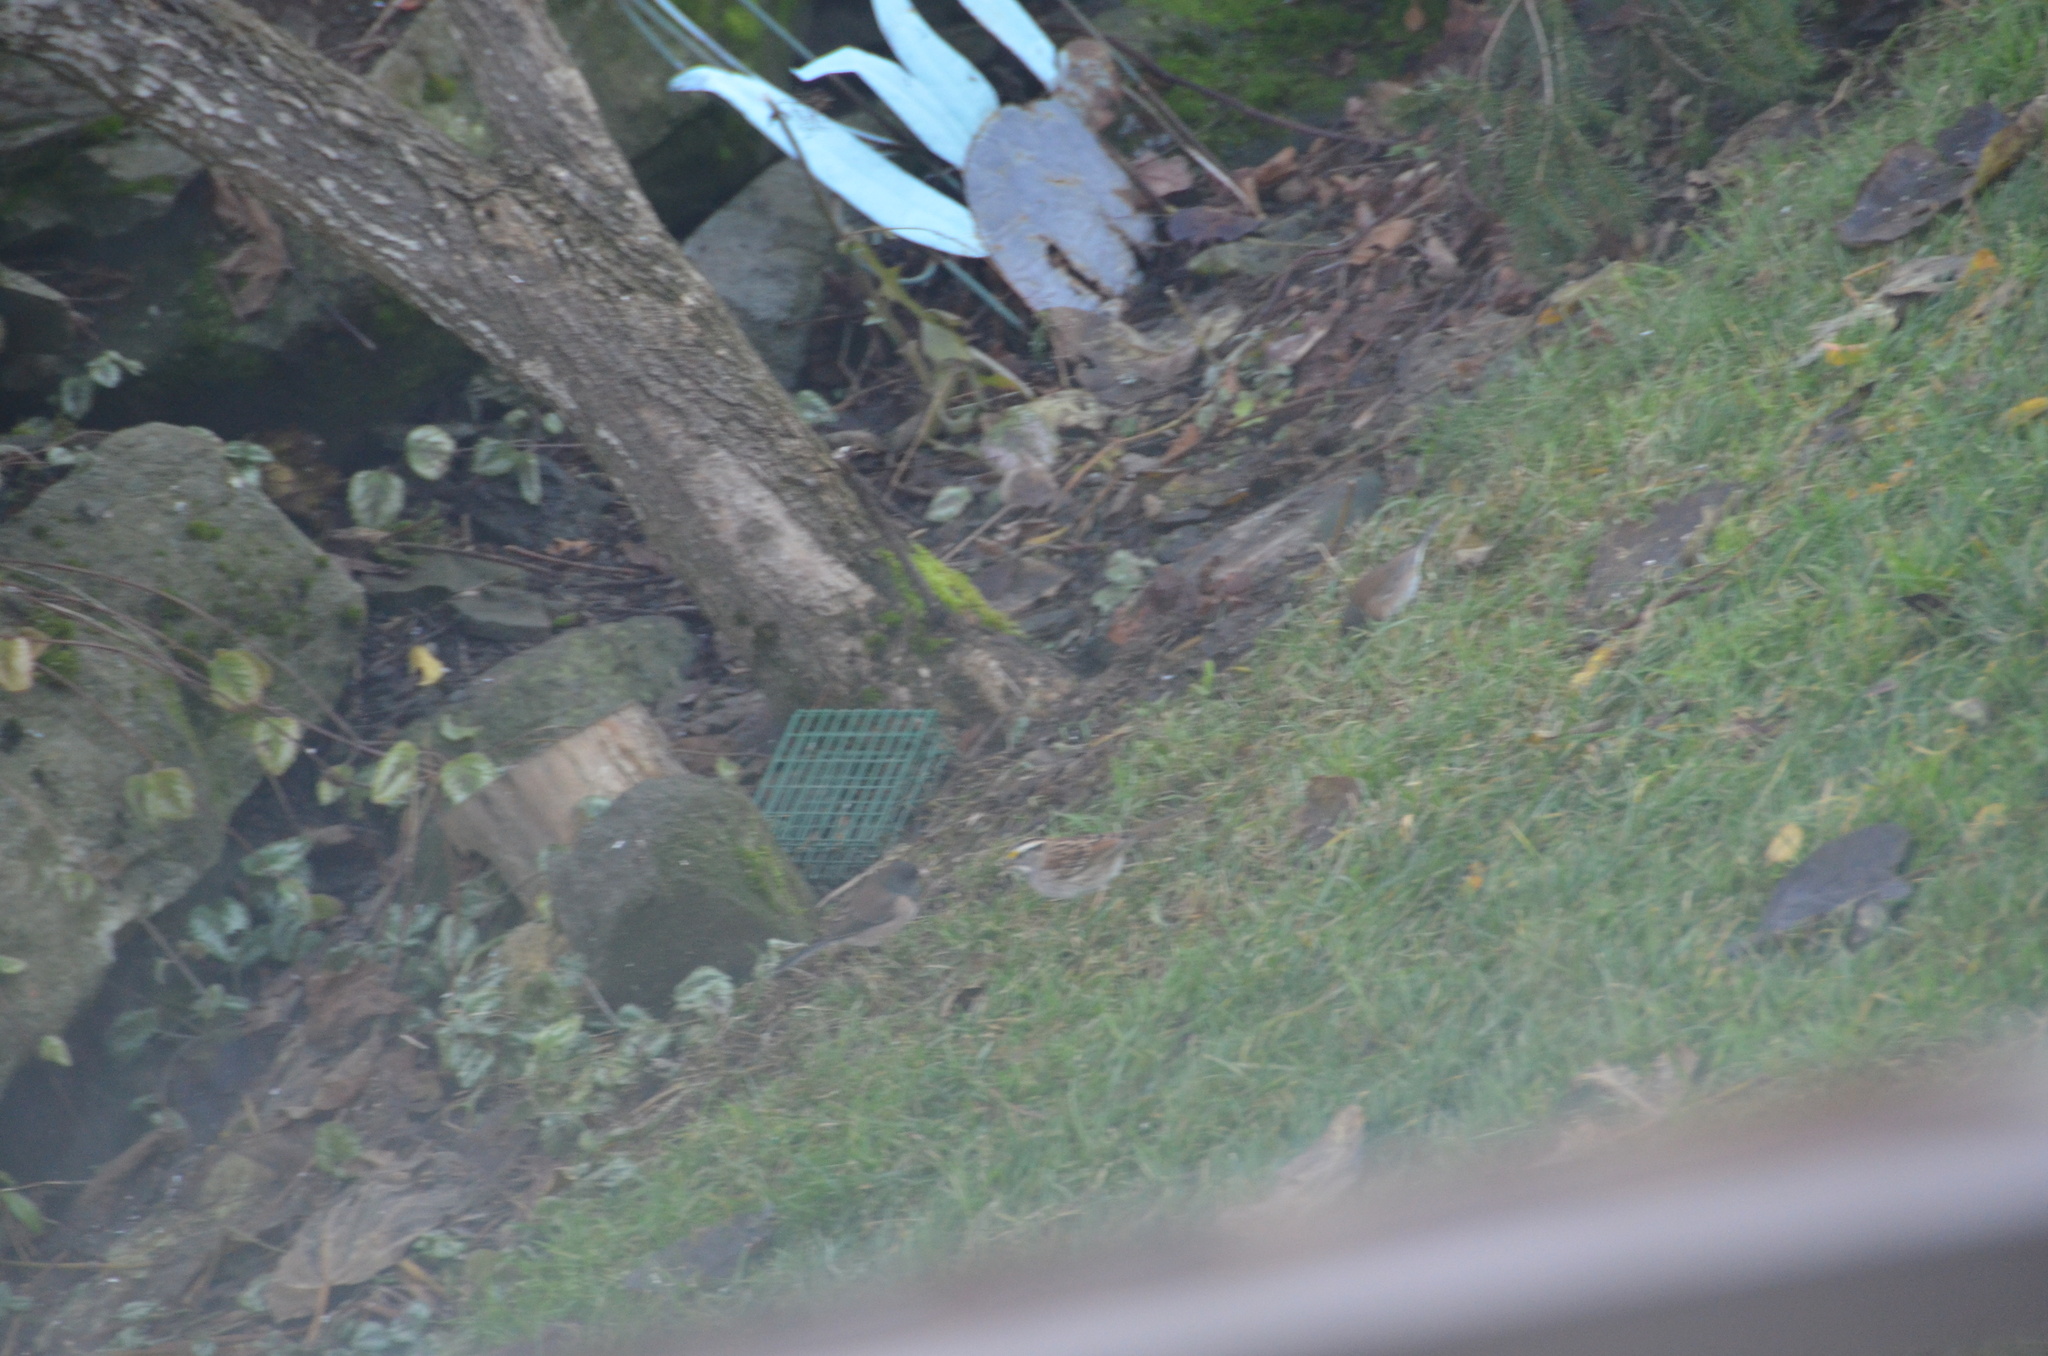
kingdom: Animalia
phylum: Chordata
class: Aves
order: Passeriformes
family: Passerellidae
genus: Zonotrichia
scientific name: Zonotrichia albicollis
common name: White-throated sparrow
